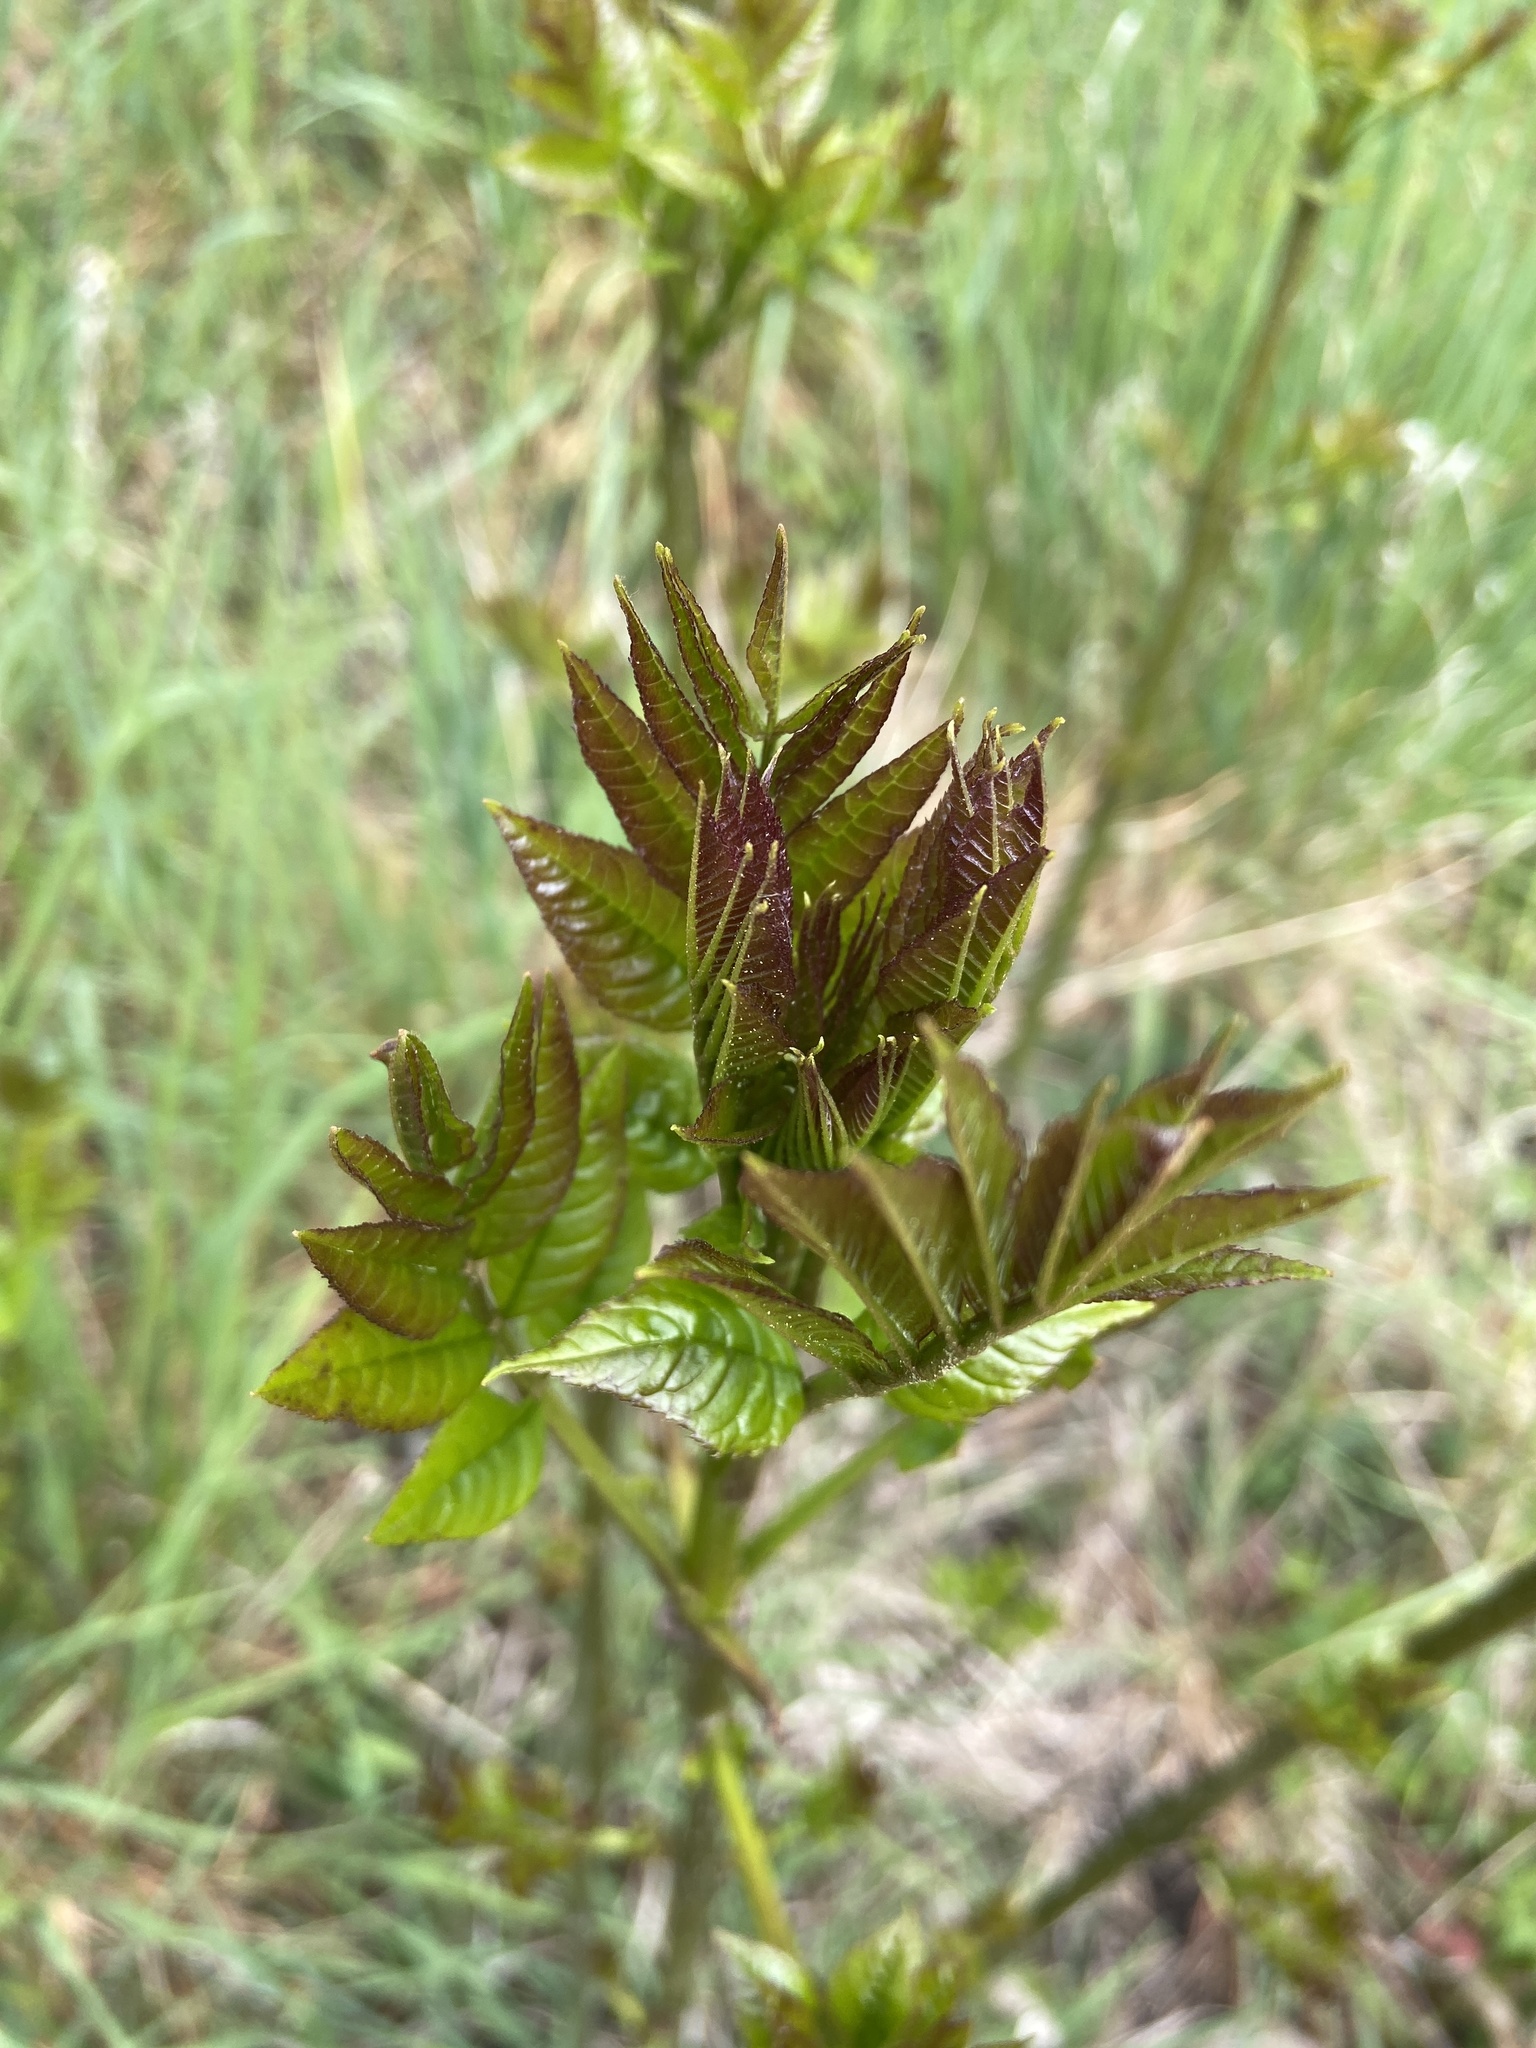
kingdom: Plantae
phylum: Tracheophyta
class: Magnoliopsida
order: Lamiales
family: Oleaceae
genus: Fraxinus
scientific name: Fraxinus excelsior
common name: European ash
